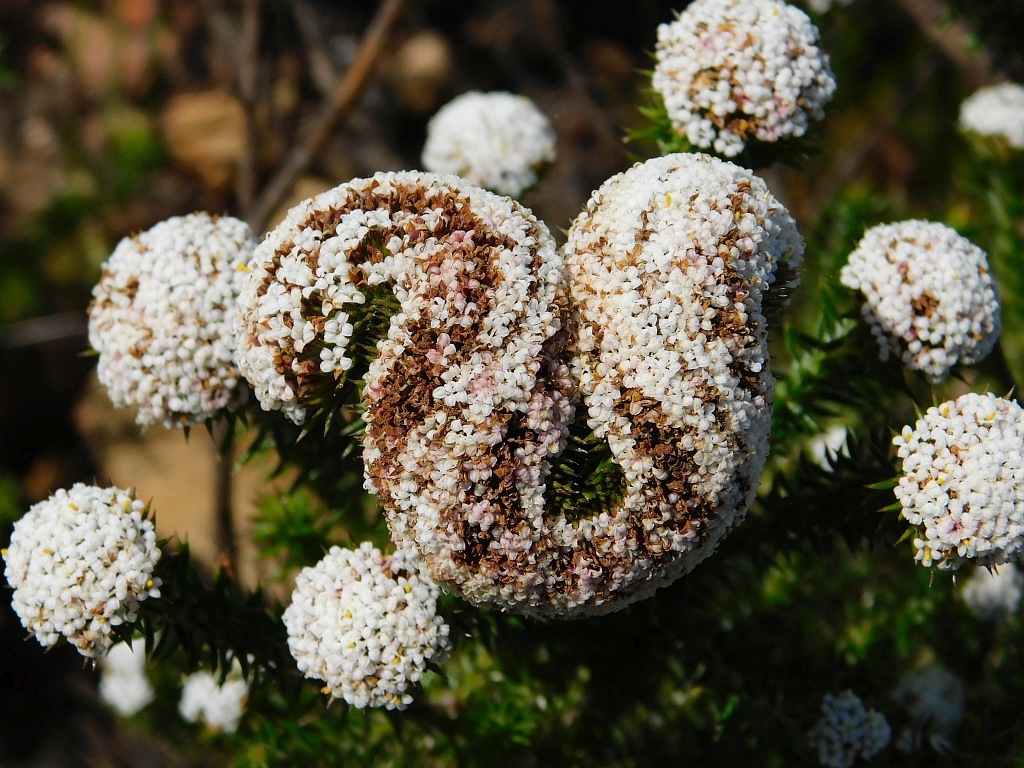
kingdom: Plantae
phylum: Tracheophyta
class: Magnoliopsida
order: Asterales
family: Asteraceae
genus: Stoebe
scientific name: Stoebe aethiopica
